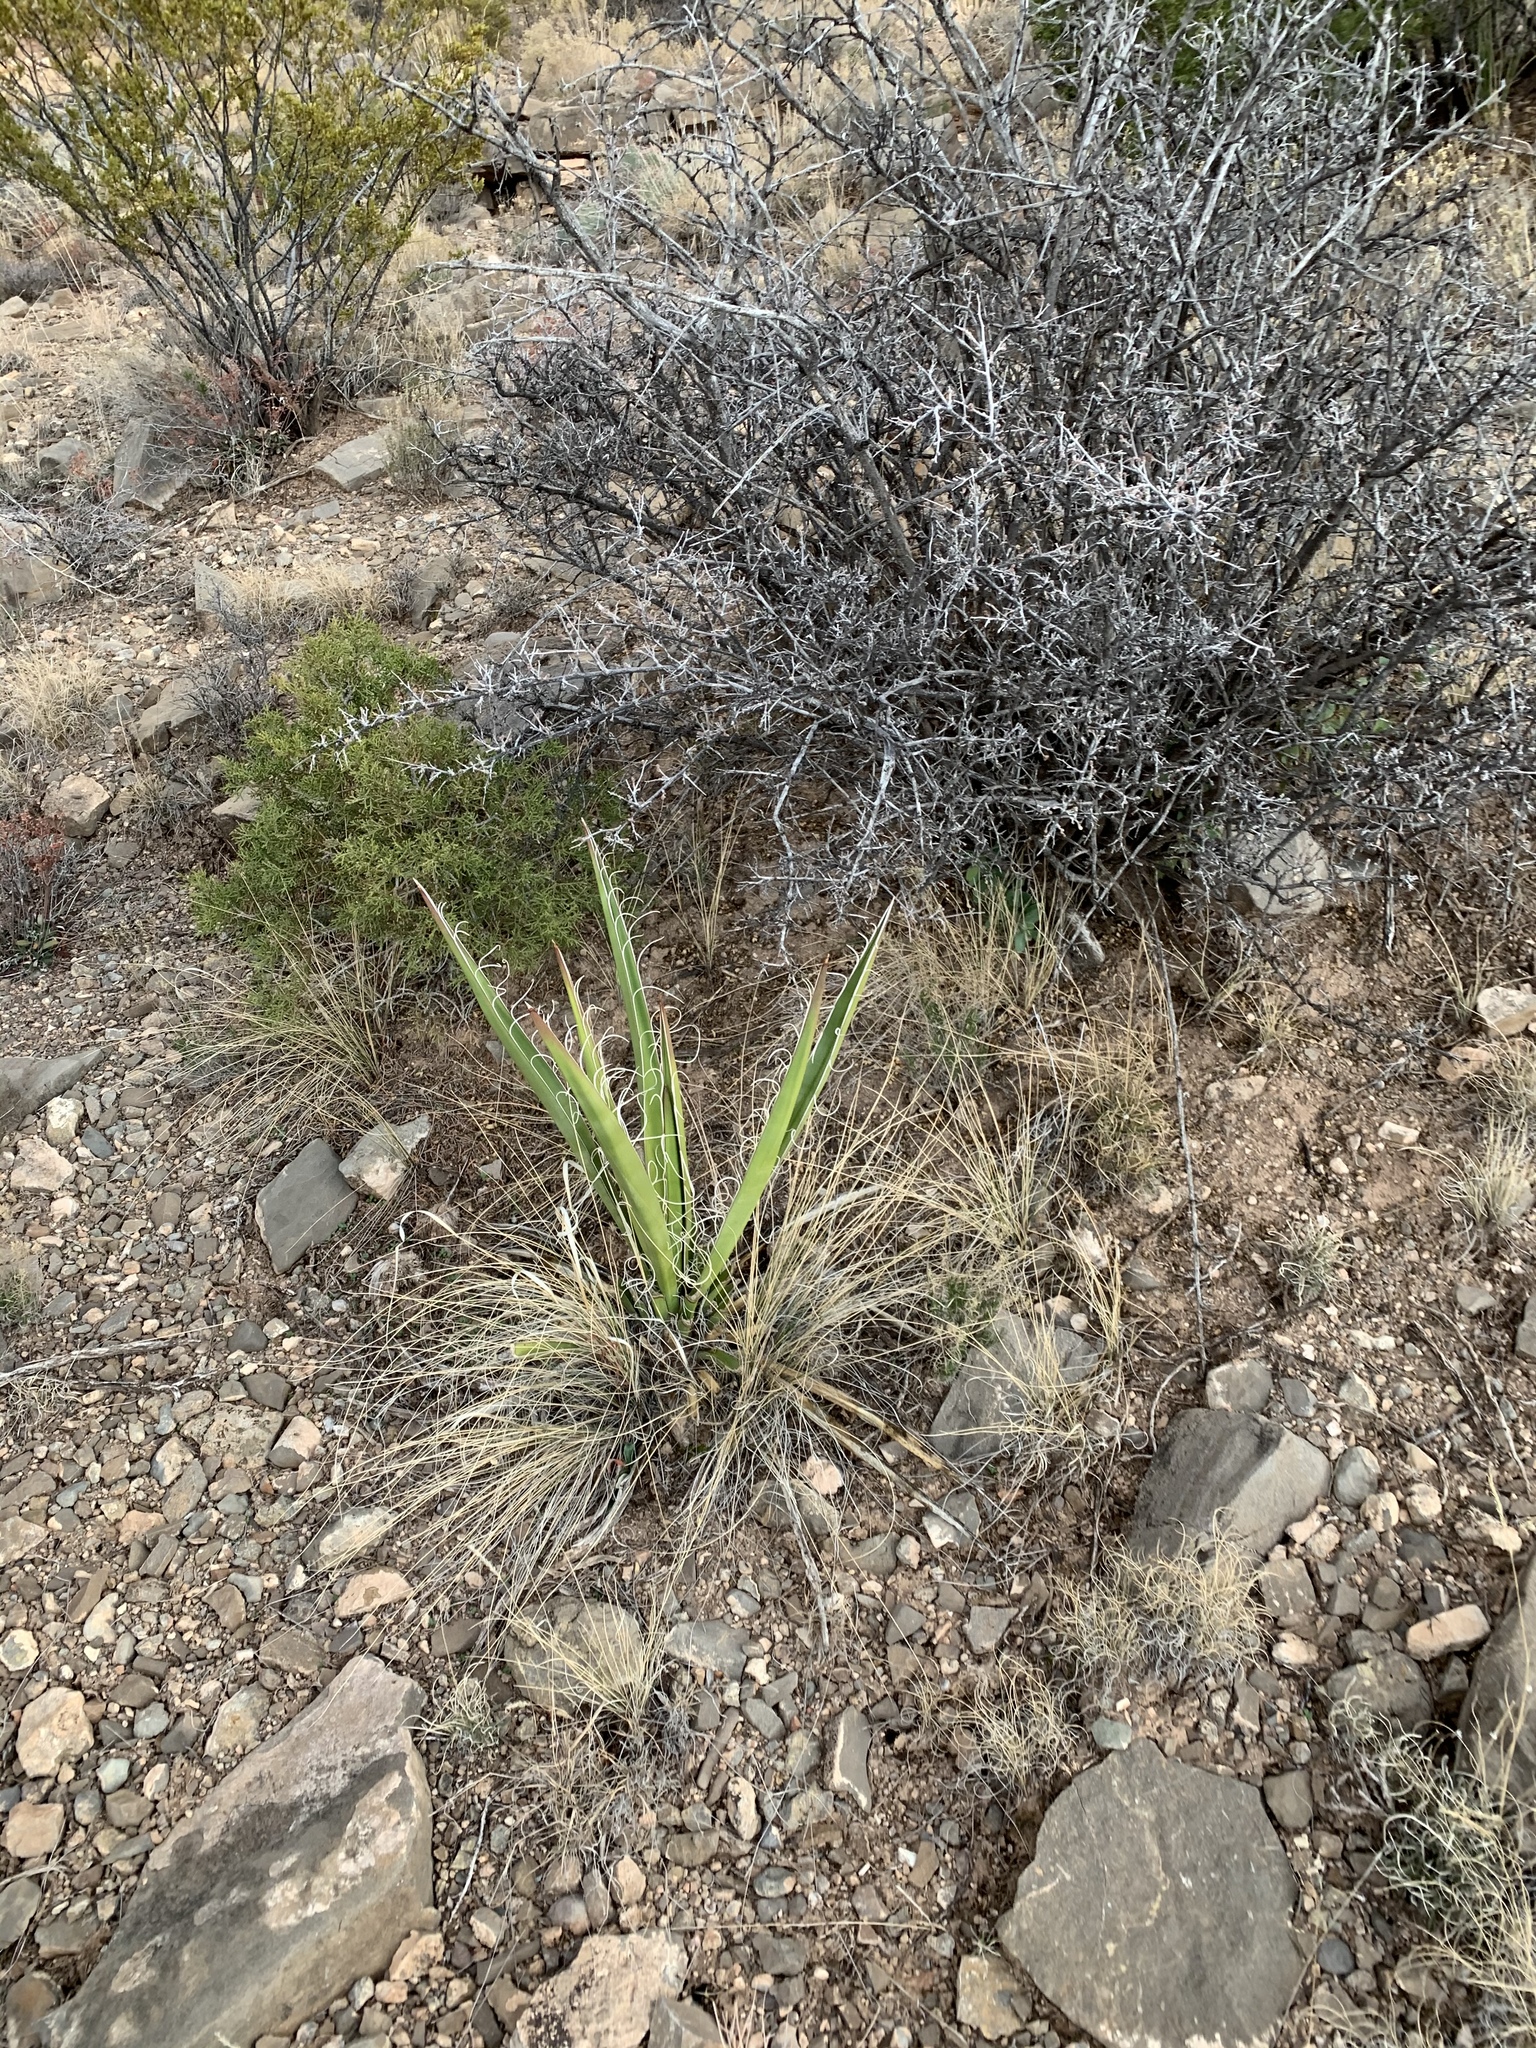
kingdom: Plantae
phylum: Tracheophyta
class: Liliopsida
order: Asparagales
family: Asparagaceae
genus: Yucca
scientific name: Yucca baccata
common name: Banana yucca
